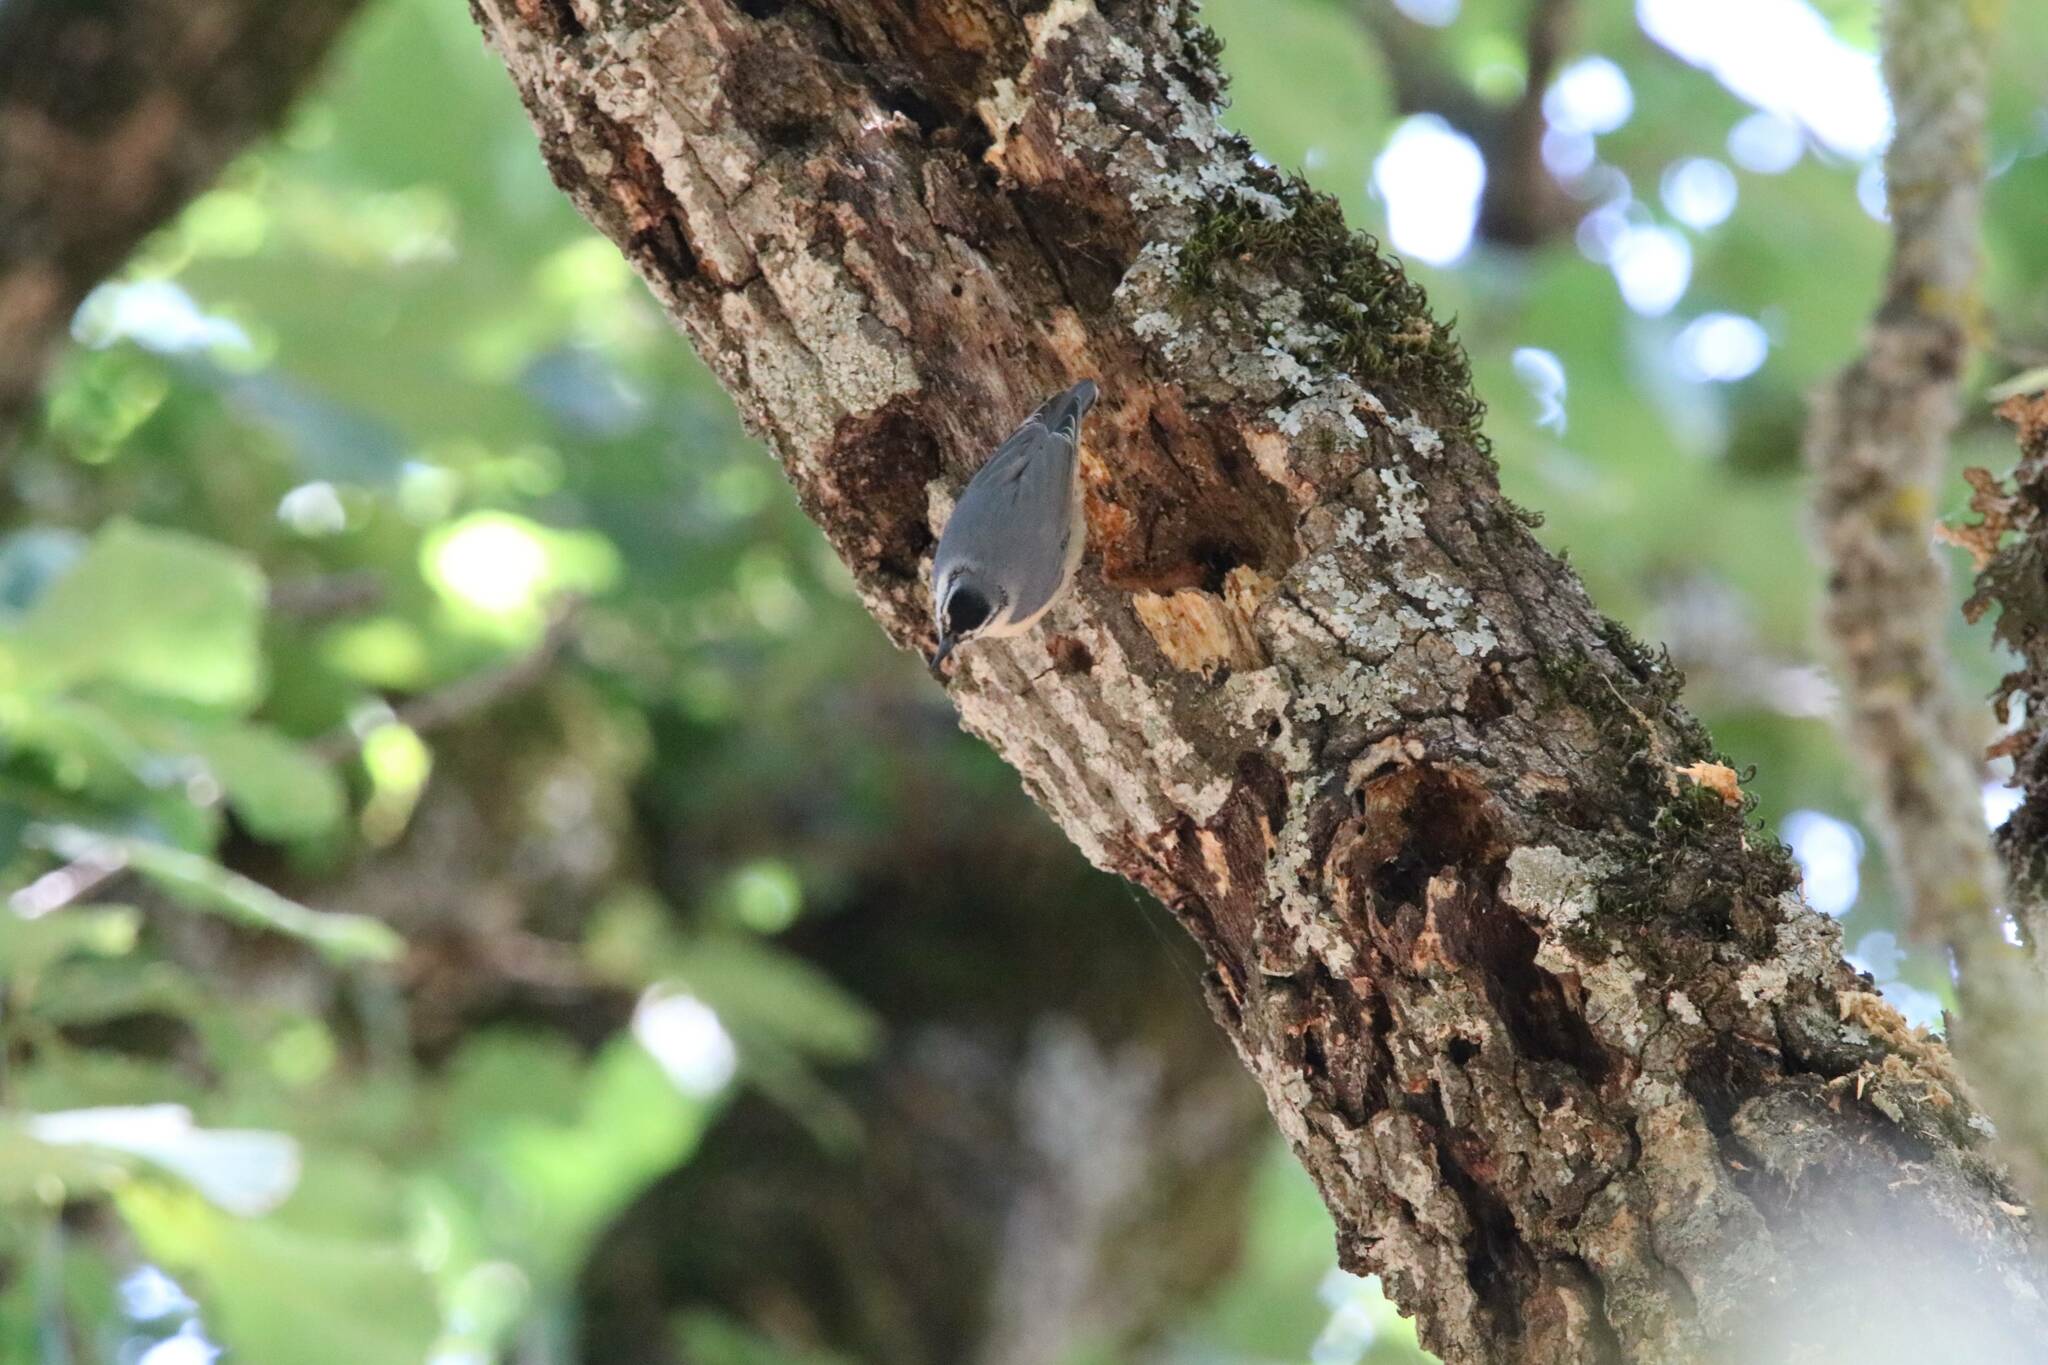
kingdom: Animalia
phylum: Chordata
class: Aves
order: Passeriformes
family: Sittidae
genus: Sitta
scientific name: Sitta ledanti
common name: Algerian nuthatch
